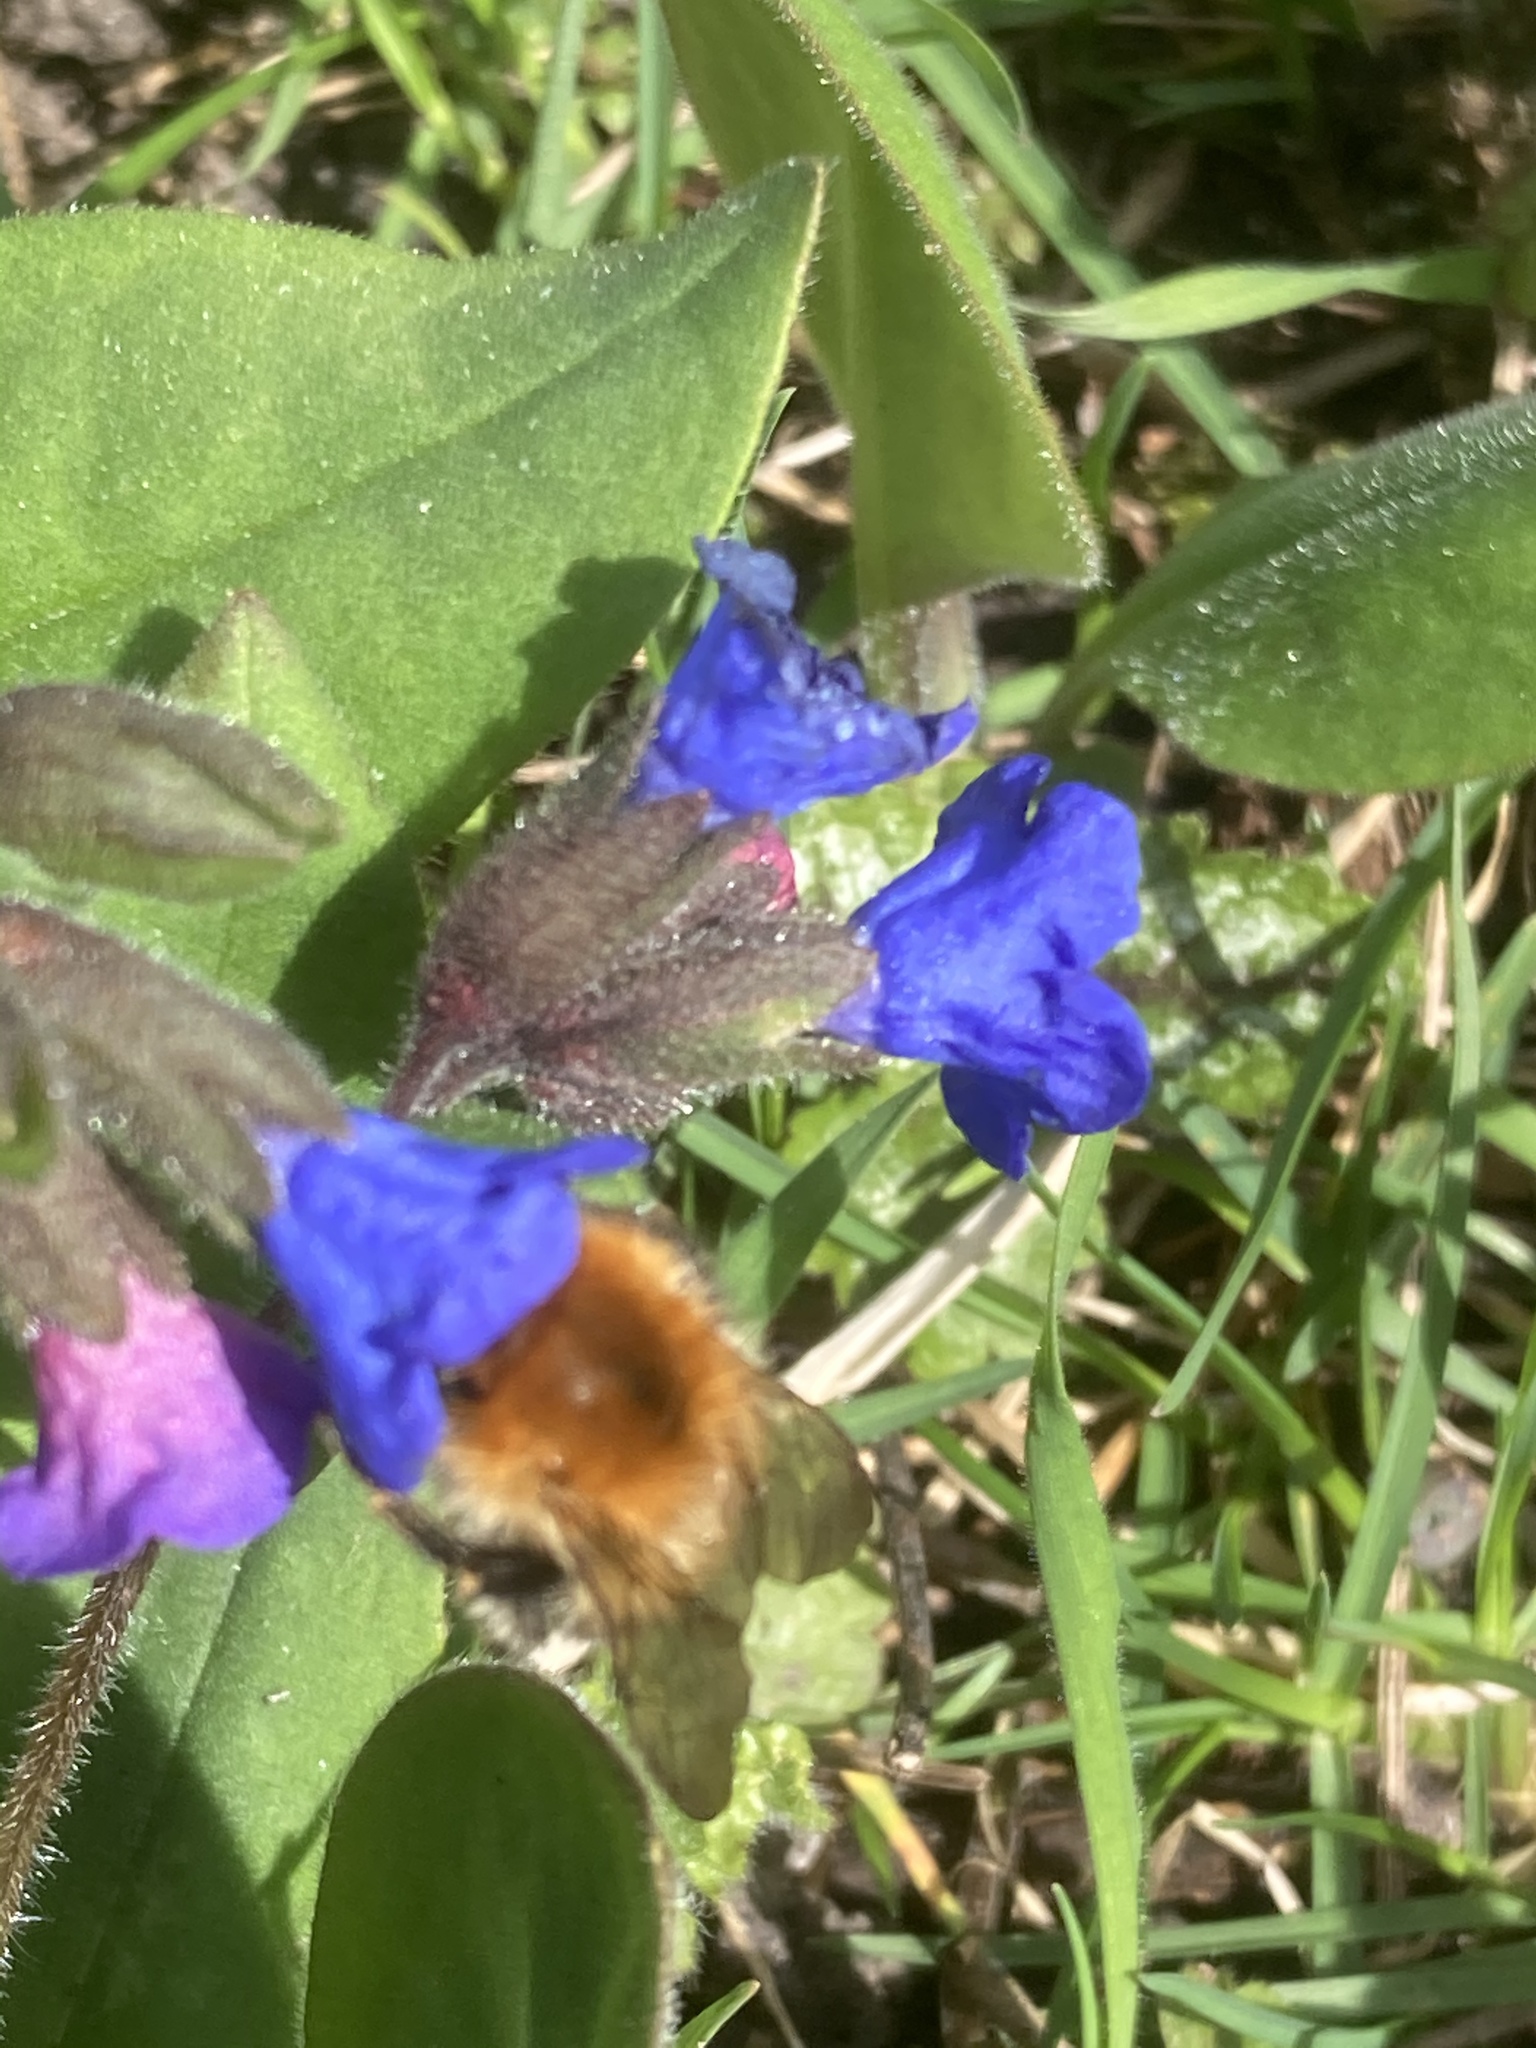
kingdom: Plantae
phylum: Tracheophyta
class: Magnoliopsida
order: Boraginales
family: Boraginaceae
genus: Pulmonaria
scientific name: Pulmonaria obscura
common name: Suffolk lungwort
